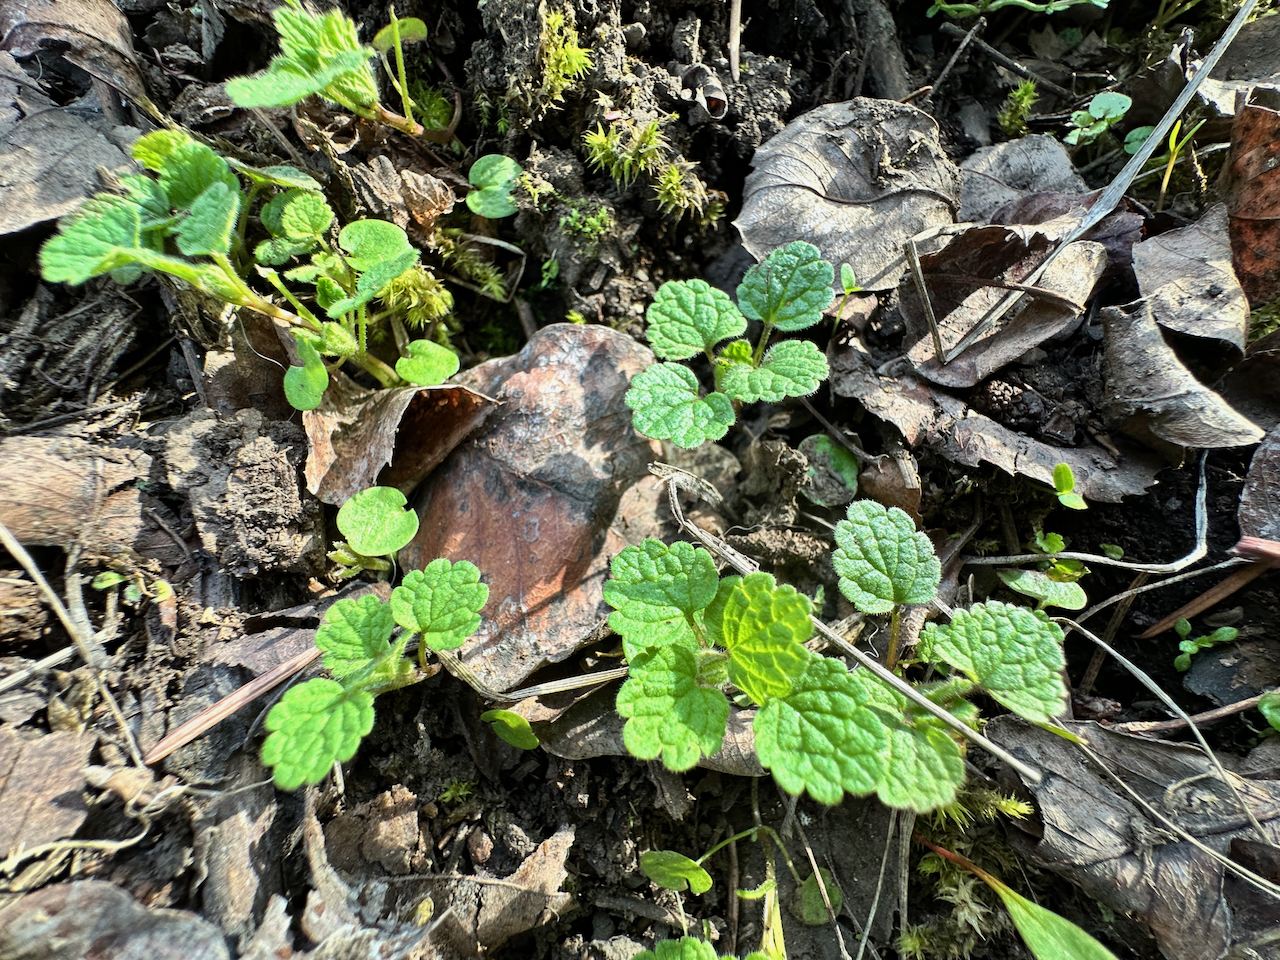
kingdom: Plantae
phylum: Tracheophyta
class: Magnoliopsida
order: Lamiales
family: Lamiaceae
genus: Lamium
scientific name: Lamium purpureum
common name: Red dead-nettle
